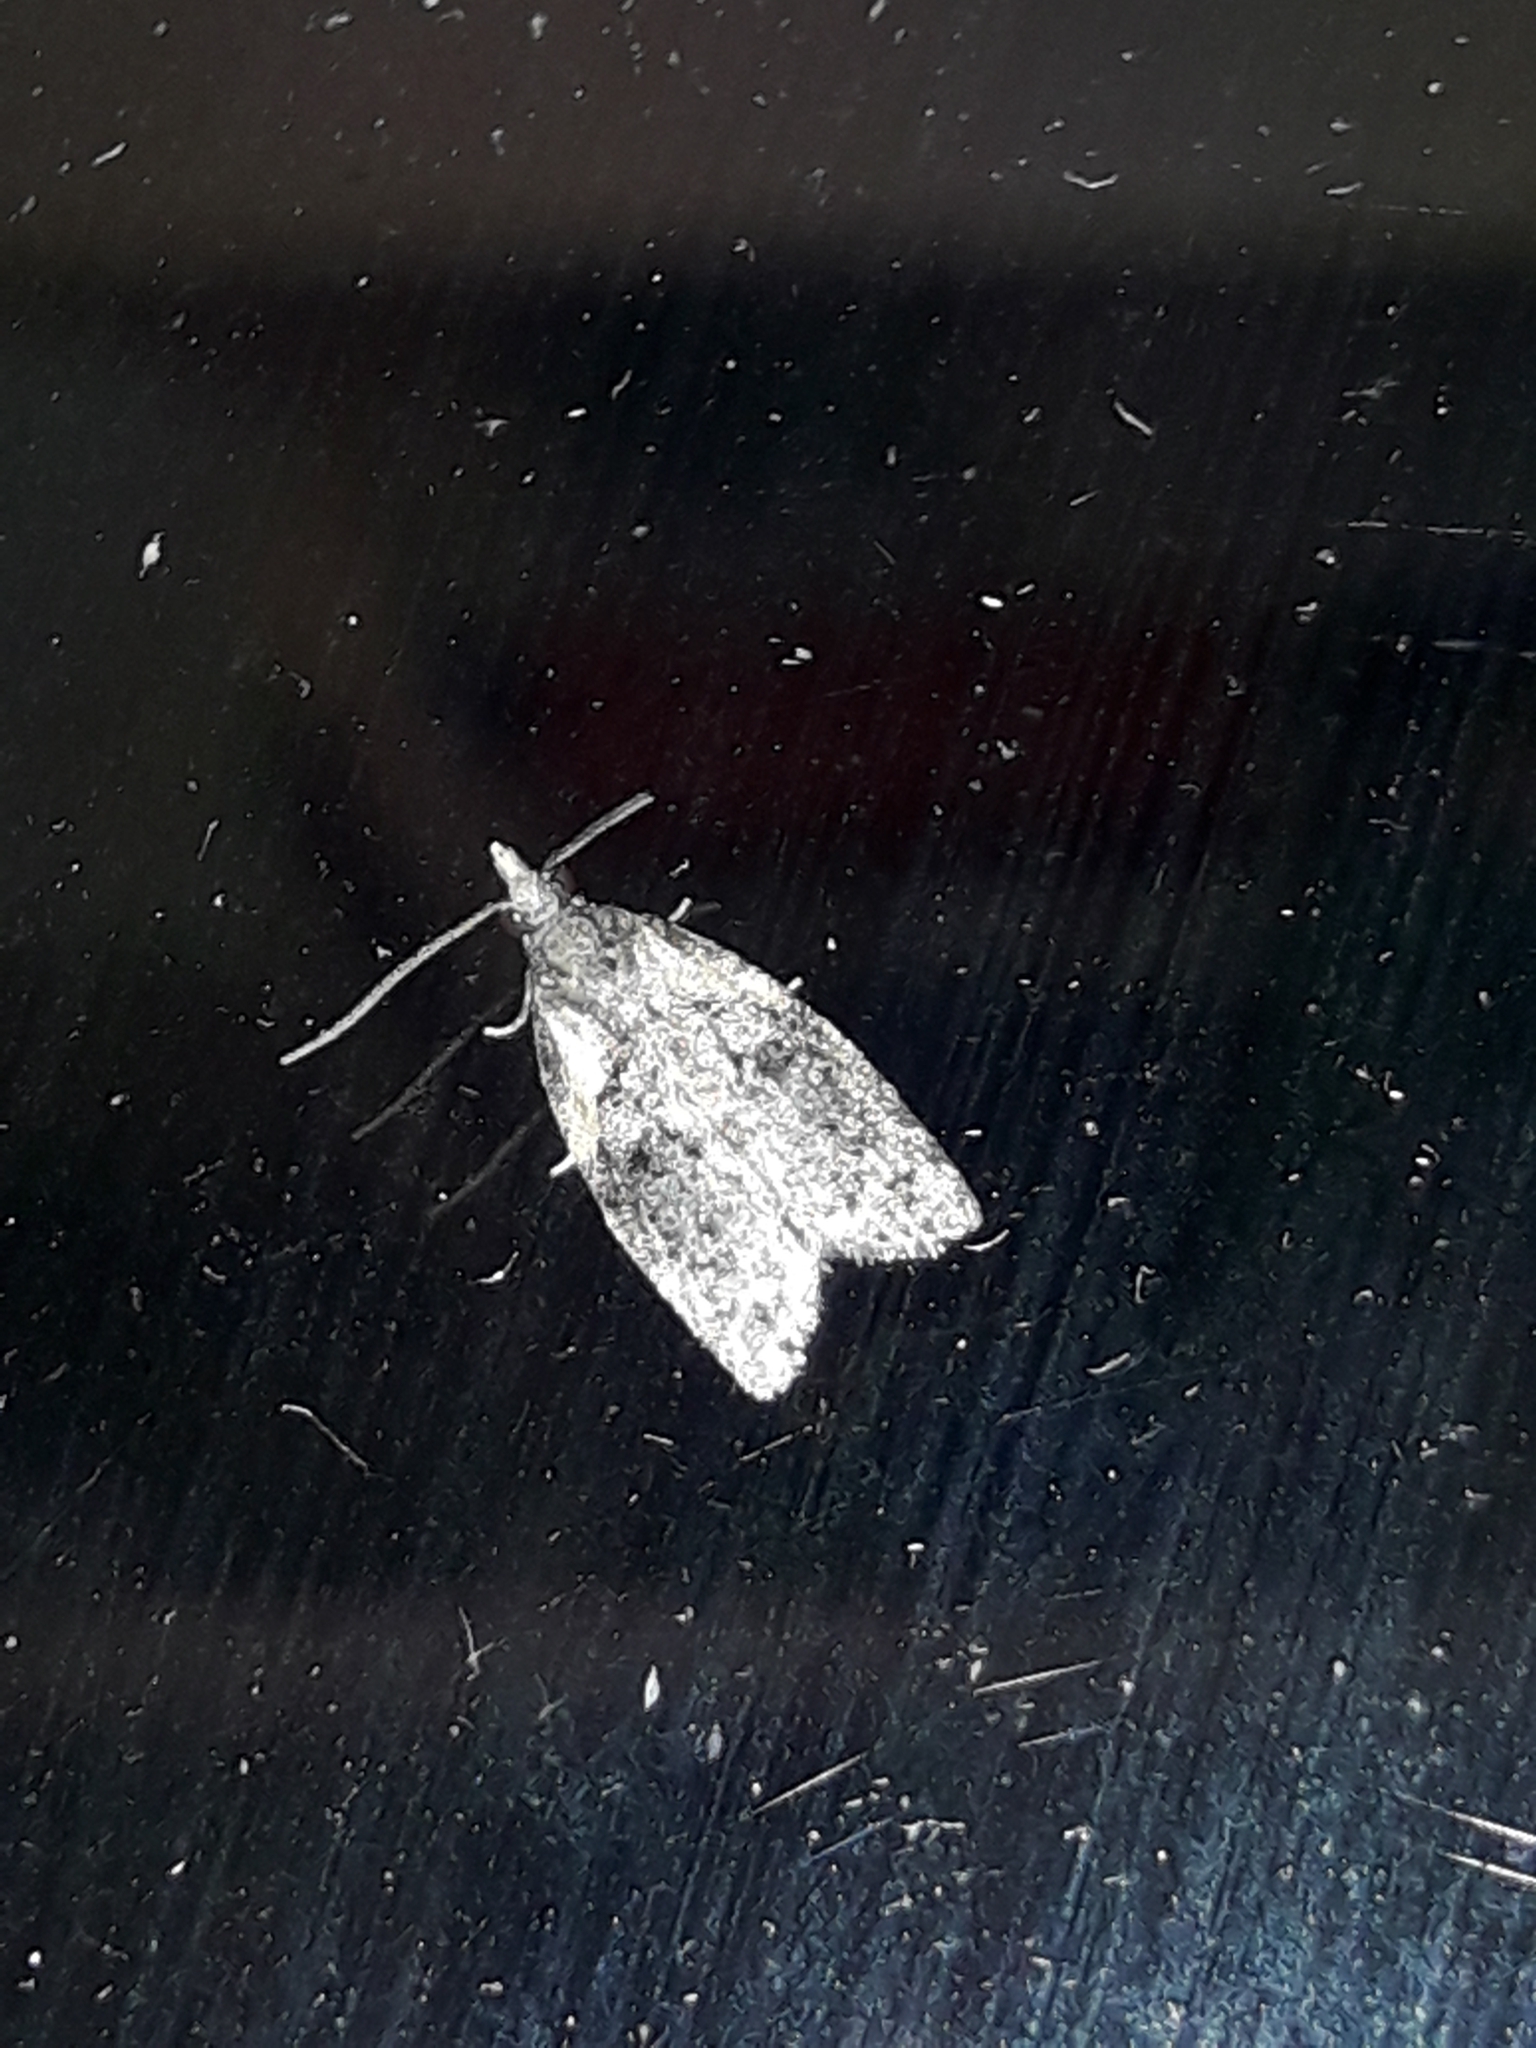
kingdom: Animalia
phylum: Arthropoda
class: Insecta
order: Lepidoptera
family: Tortricidae
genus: Capua
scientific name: Capua intractana
